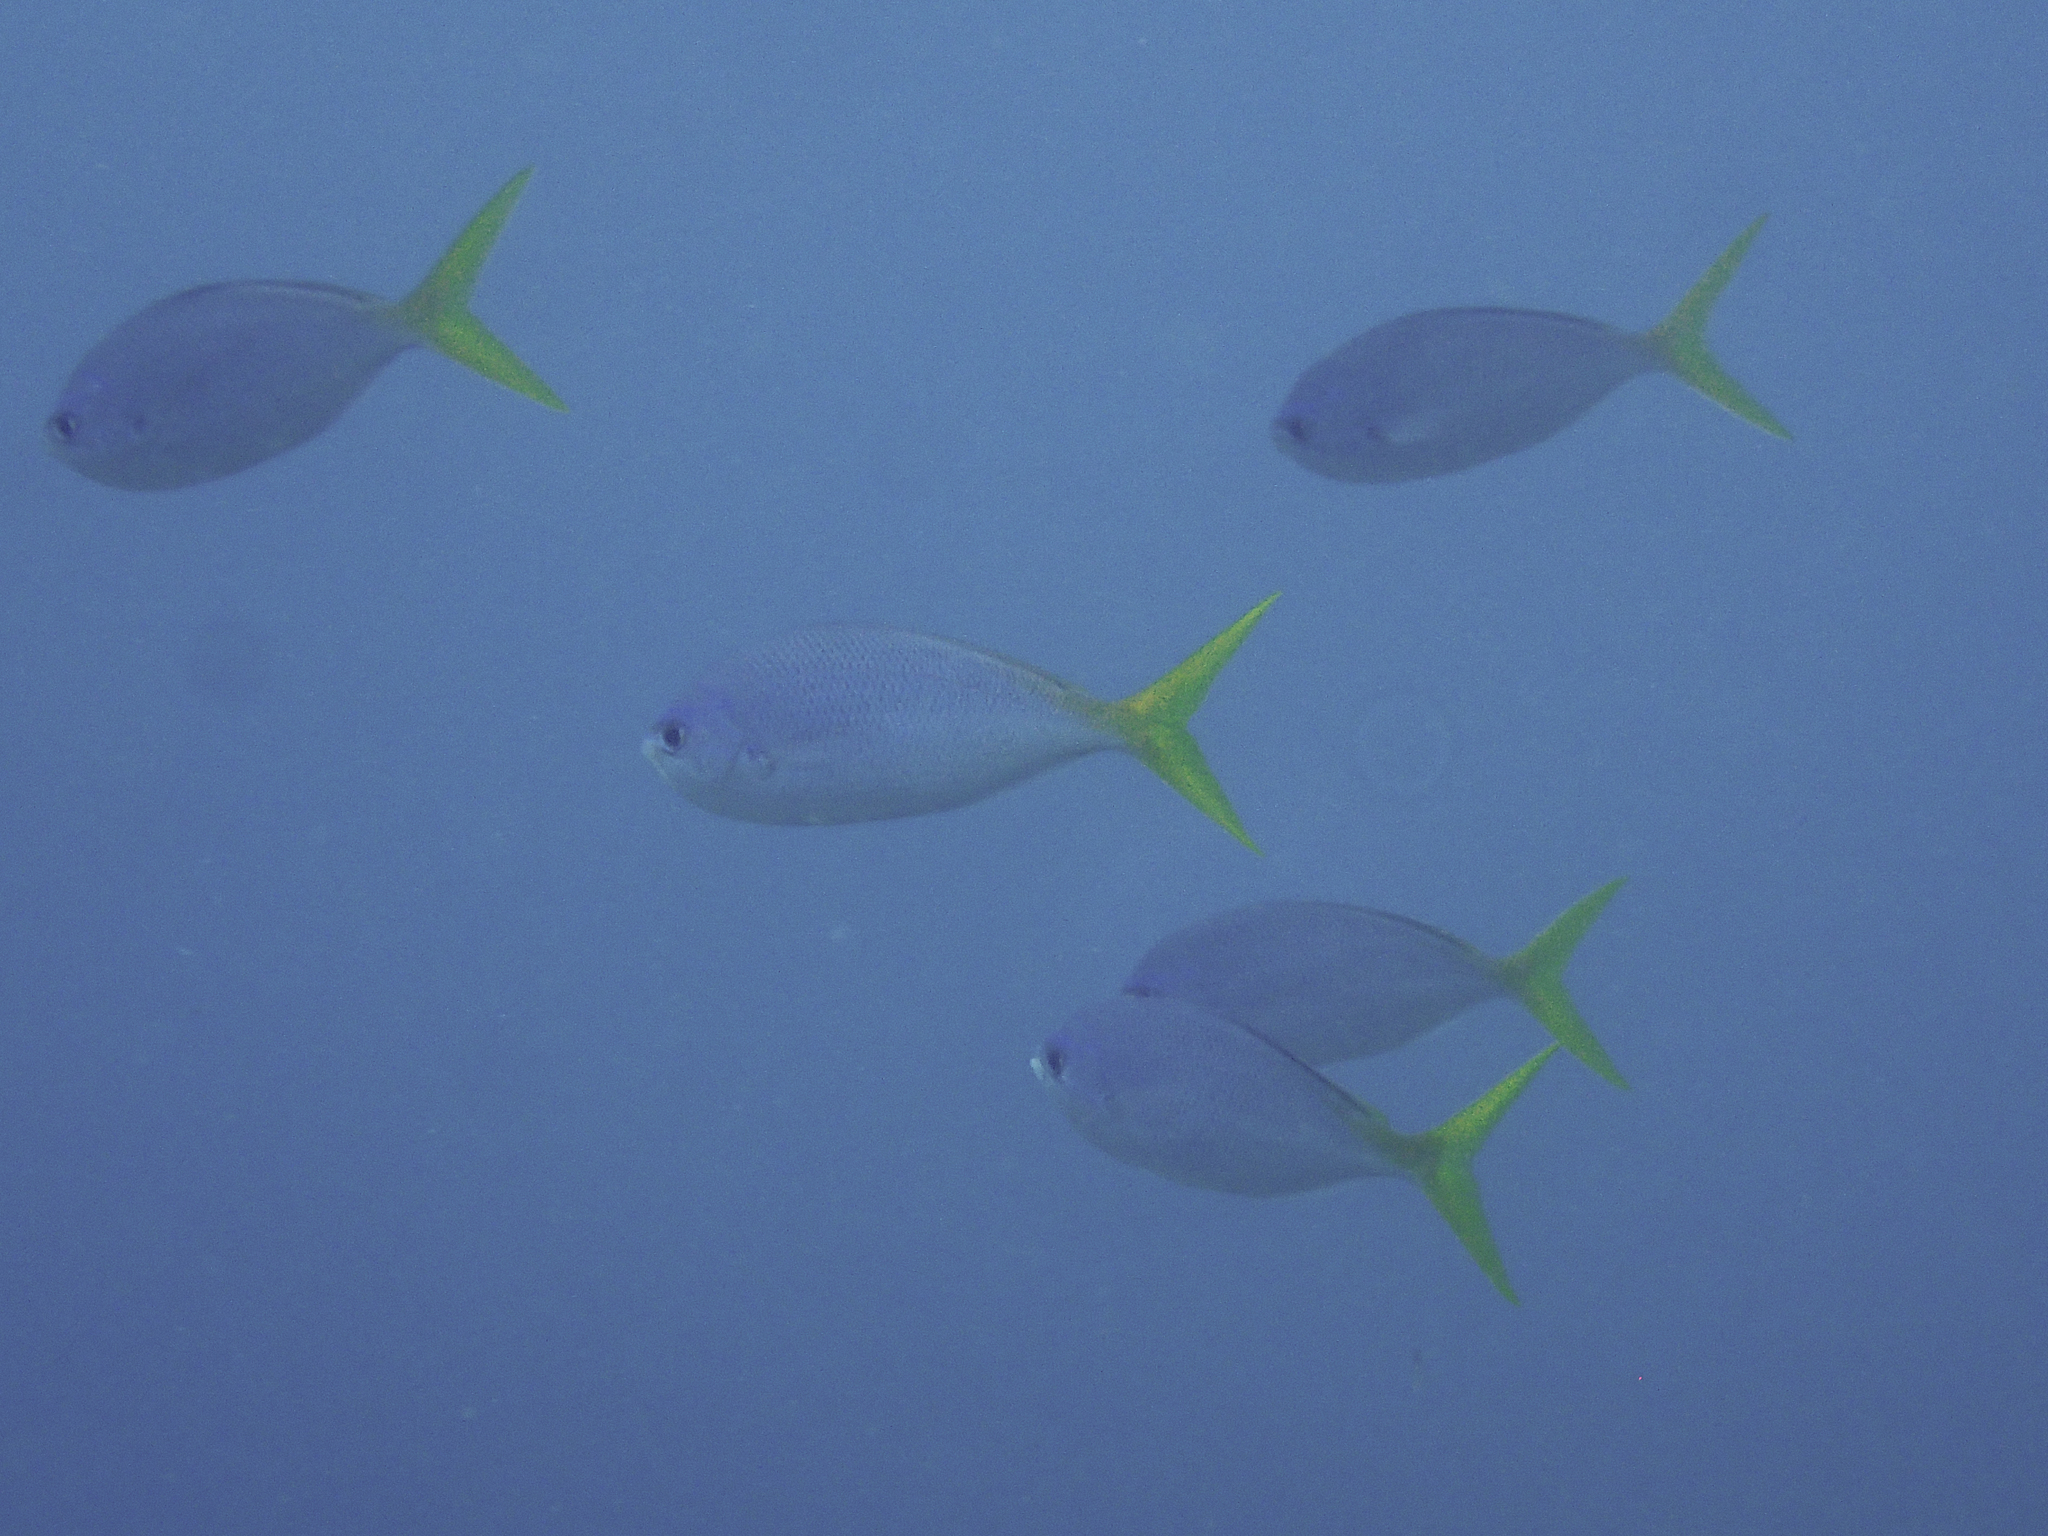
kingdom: Animalia
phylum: Chordata
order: Perciformes
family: Caesionidae
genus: Caesio
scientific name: Caesio cuning
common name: Red-bellied fusilier
